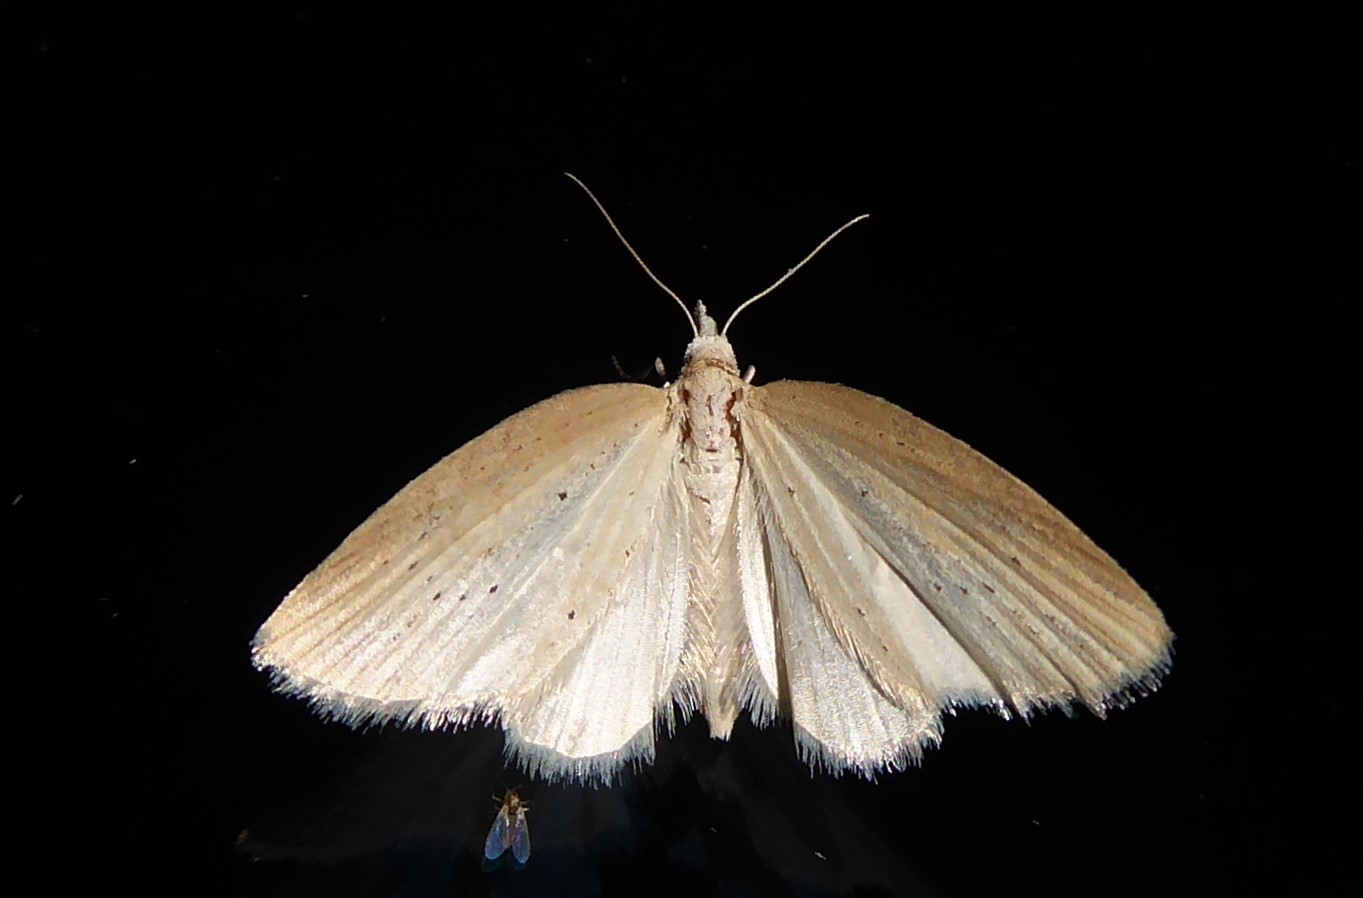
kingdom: Animalia
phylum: Arthropoda
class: Insecta
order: Lepidoptera
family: Geometridae
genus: Microdes
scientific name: Microdes epicryptis
